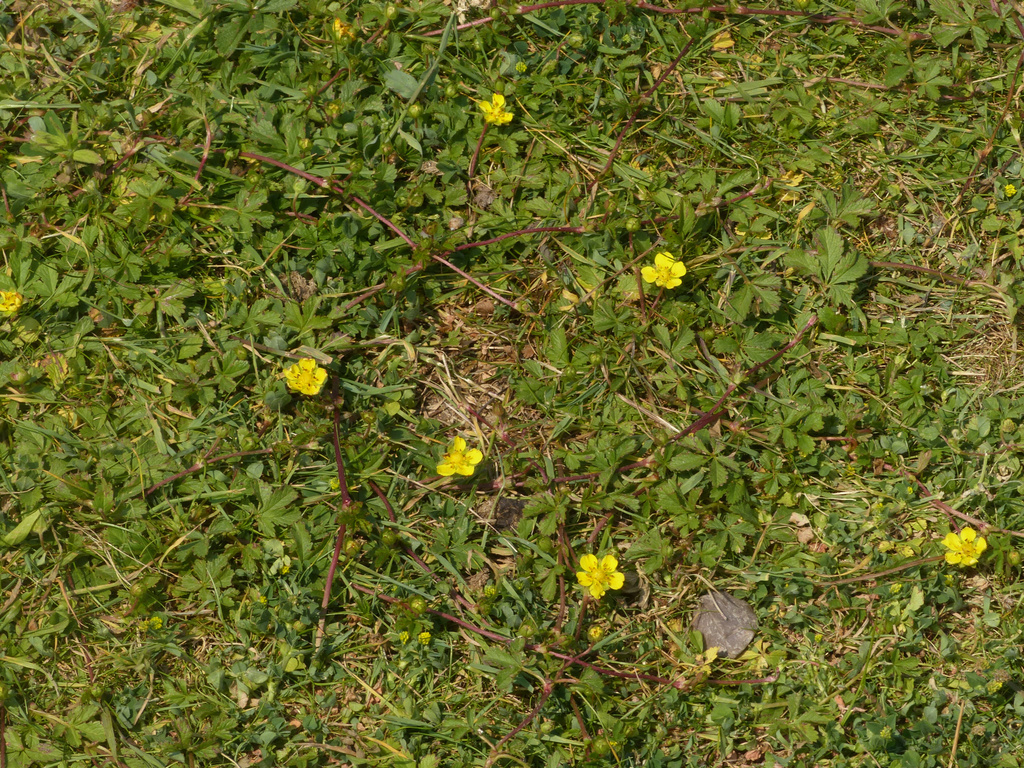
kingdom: Plantae
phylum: Tracheophyta
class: Magnoliopsida
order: Rosales
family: Rosaceae
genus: Potentilla
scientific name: Potentilla reptans
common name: Creeping cinquefoil
